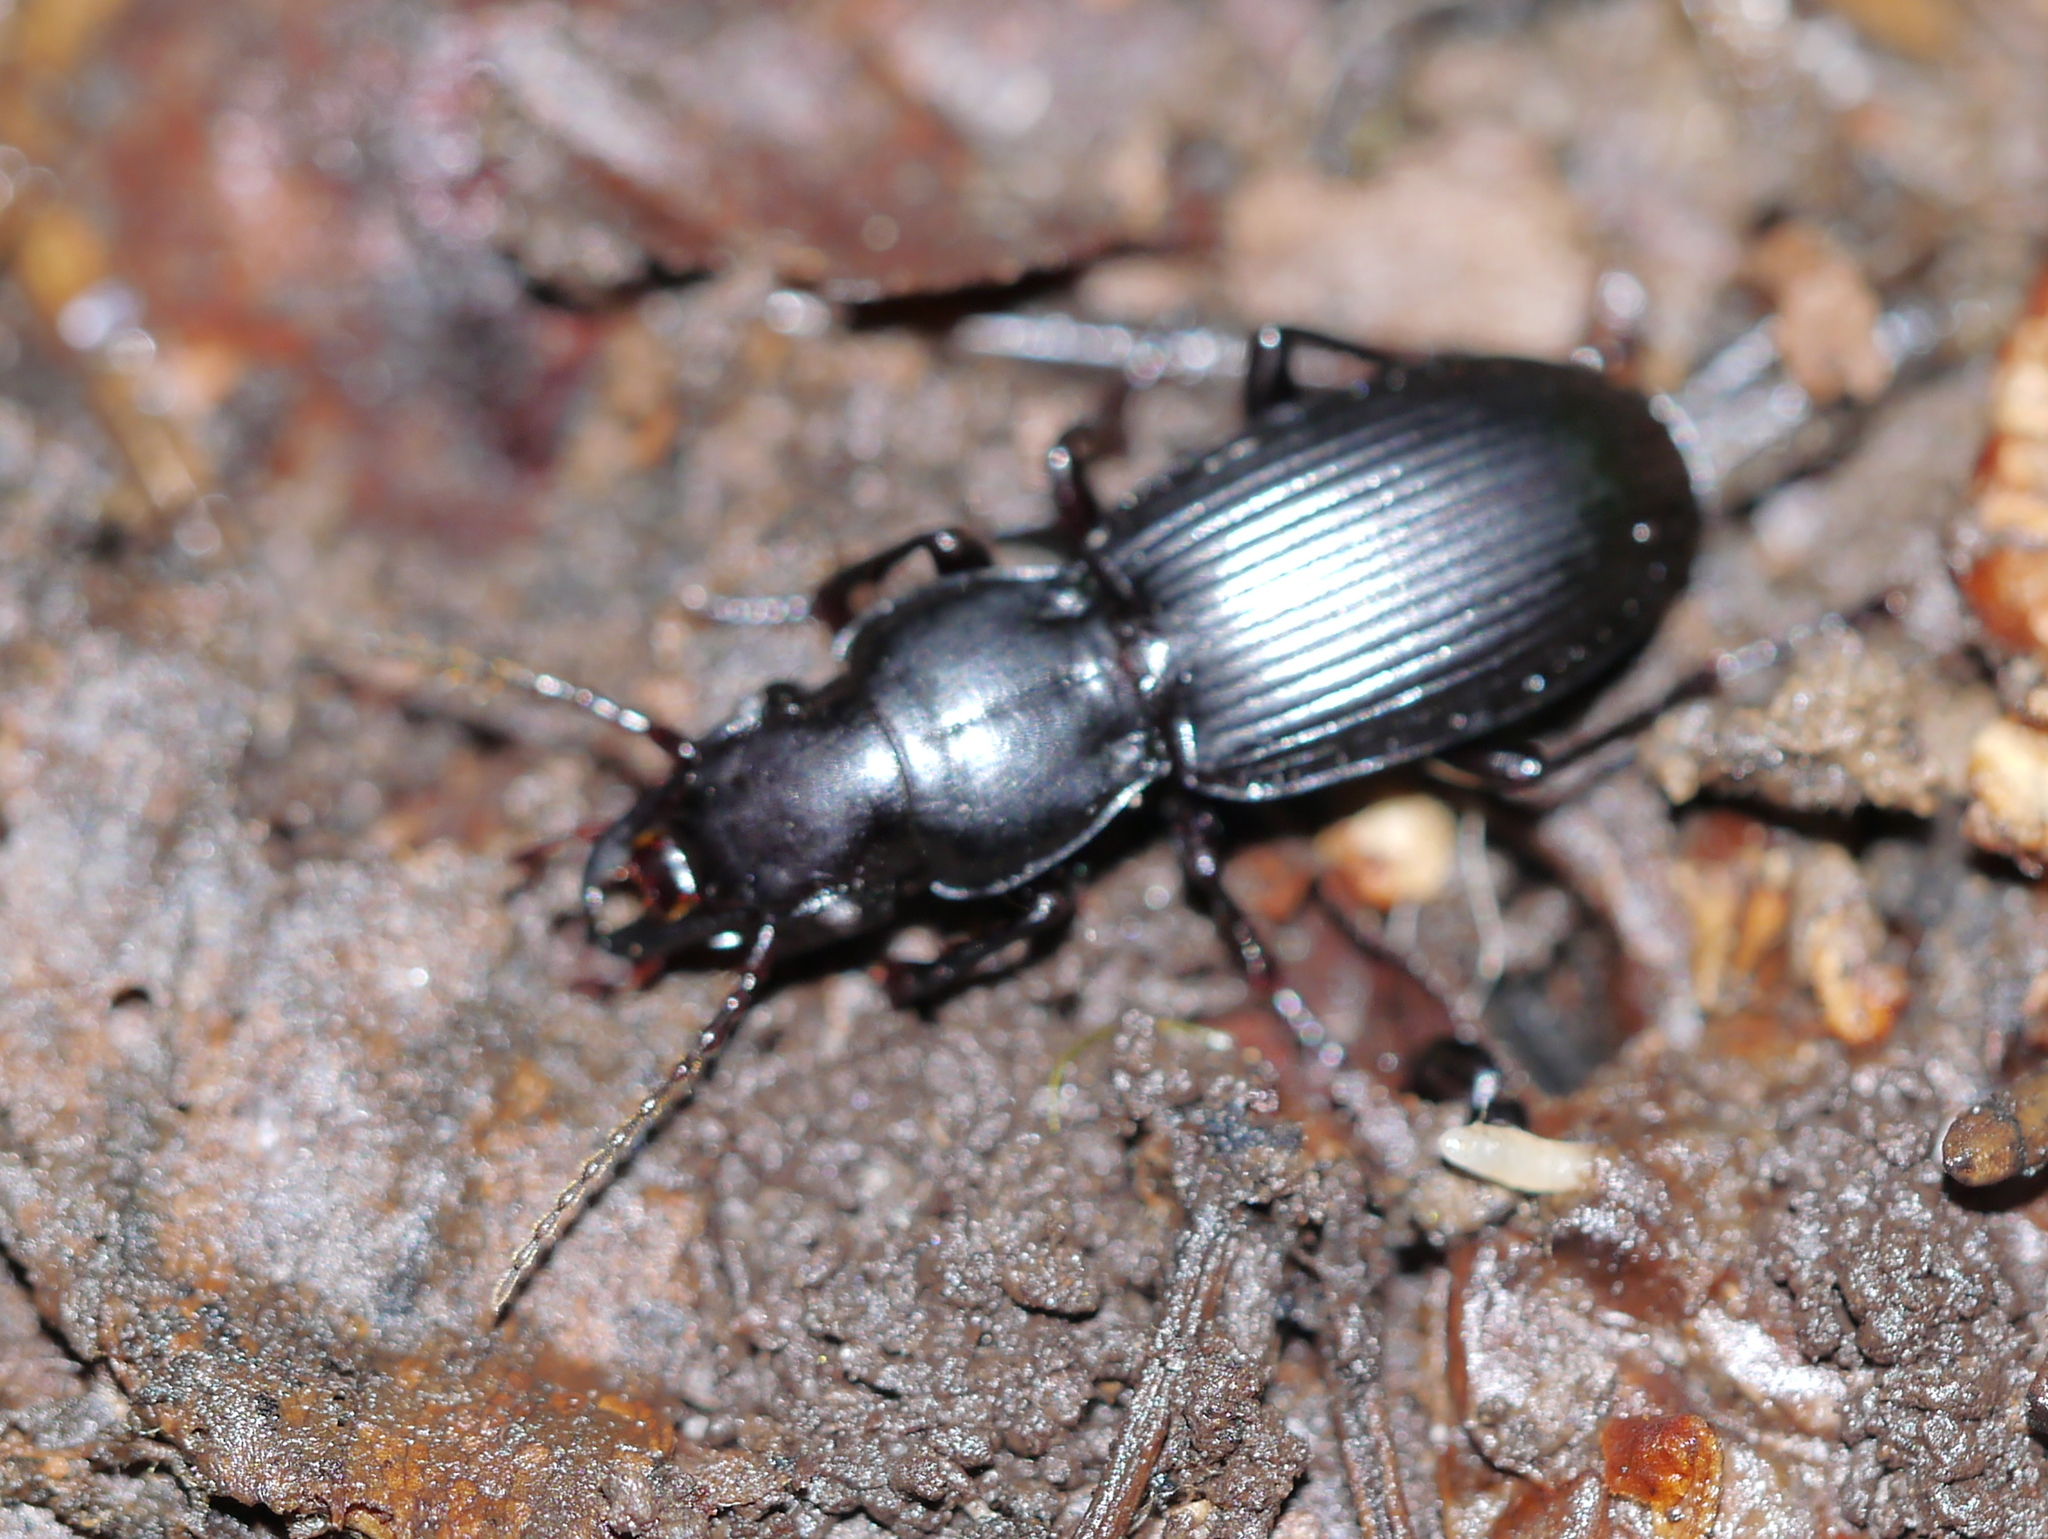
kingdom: Animalia
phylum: Arthropoda
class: Insecta
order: Coleoptera
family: Carabidae
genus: Pterostichus
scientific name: Pterostichus rostratus
